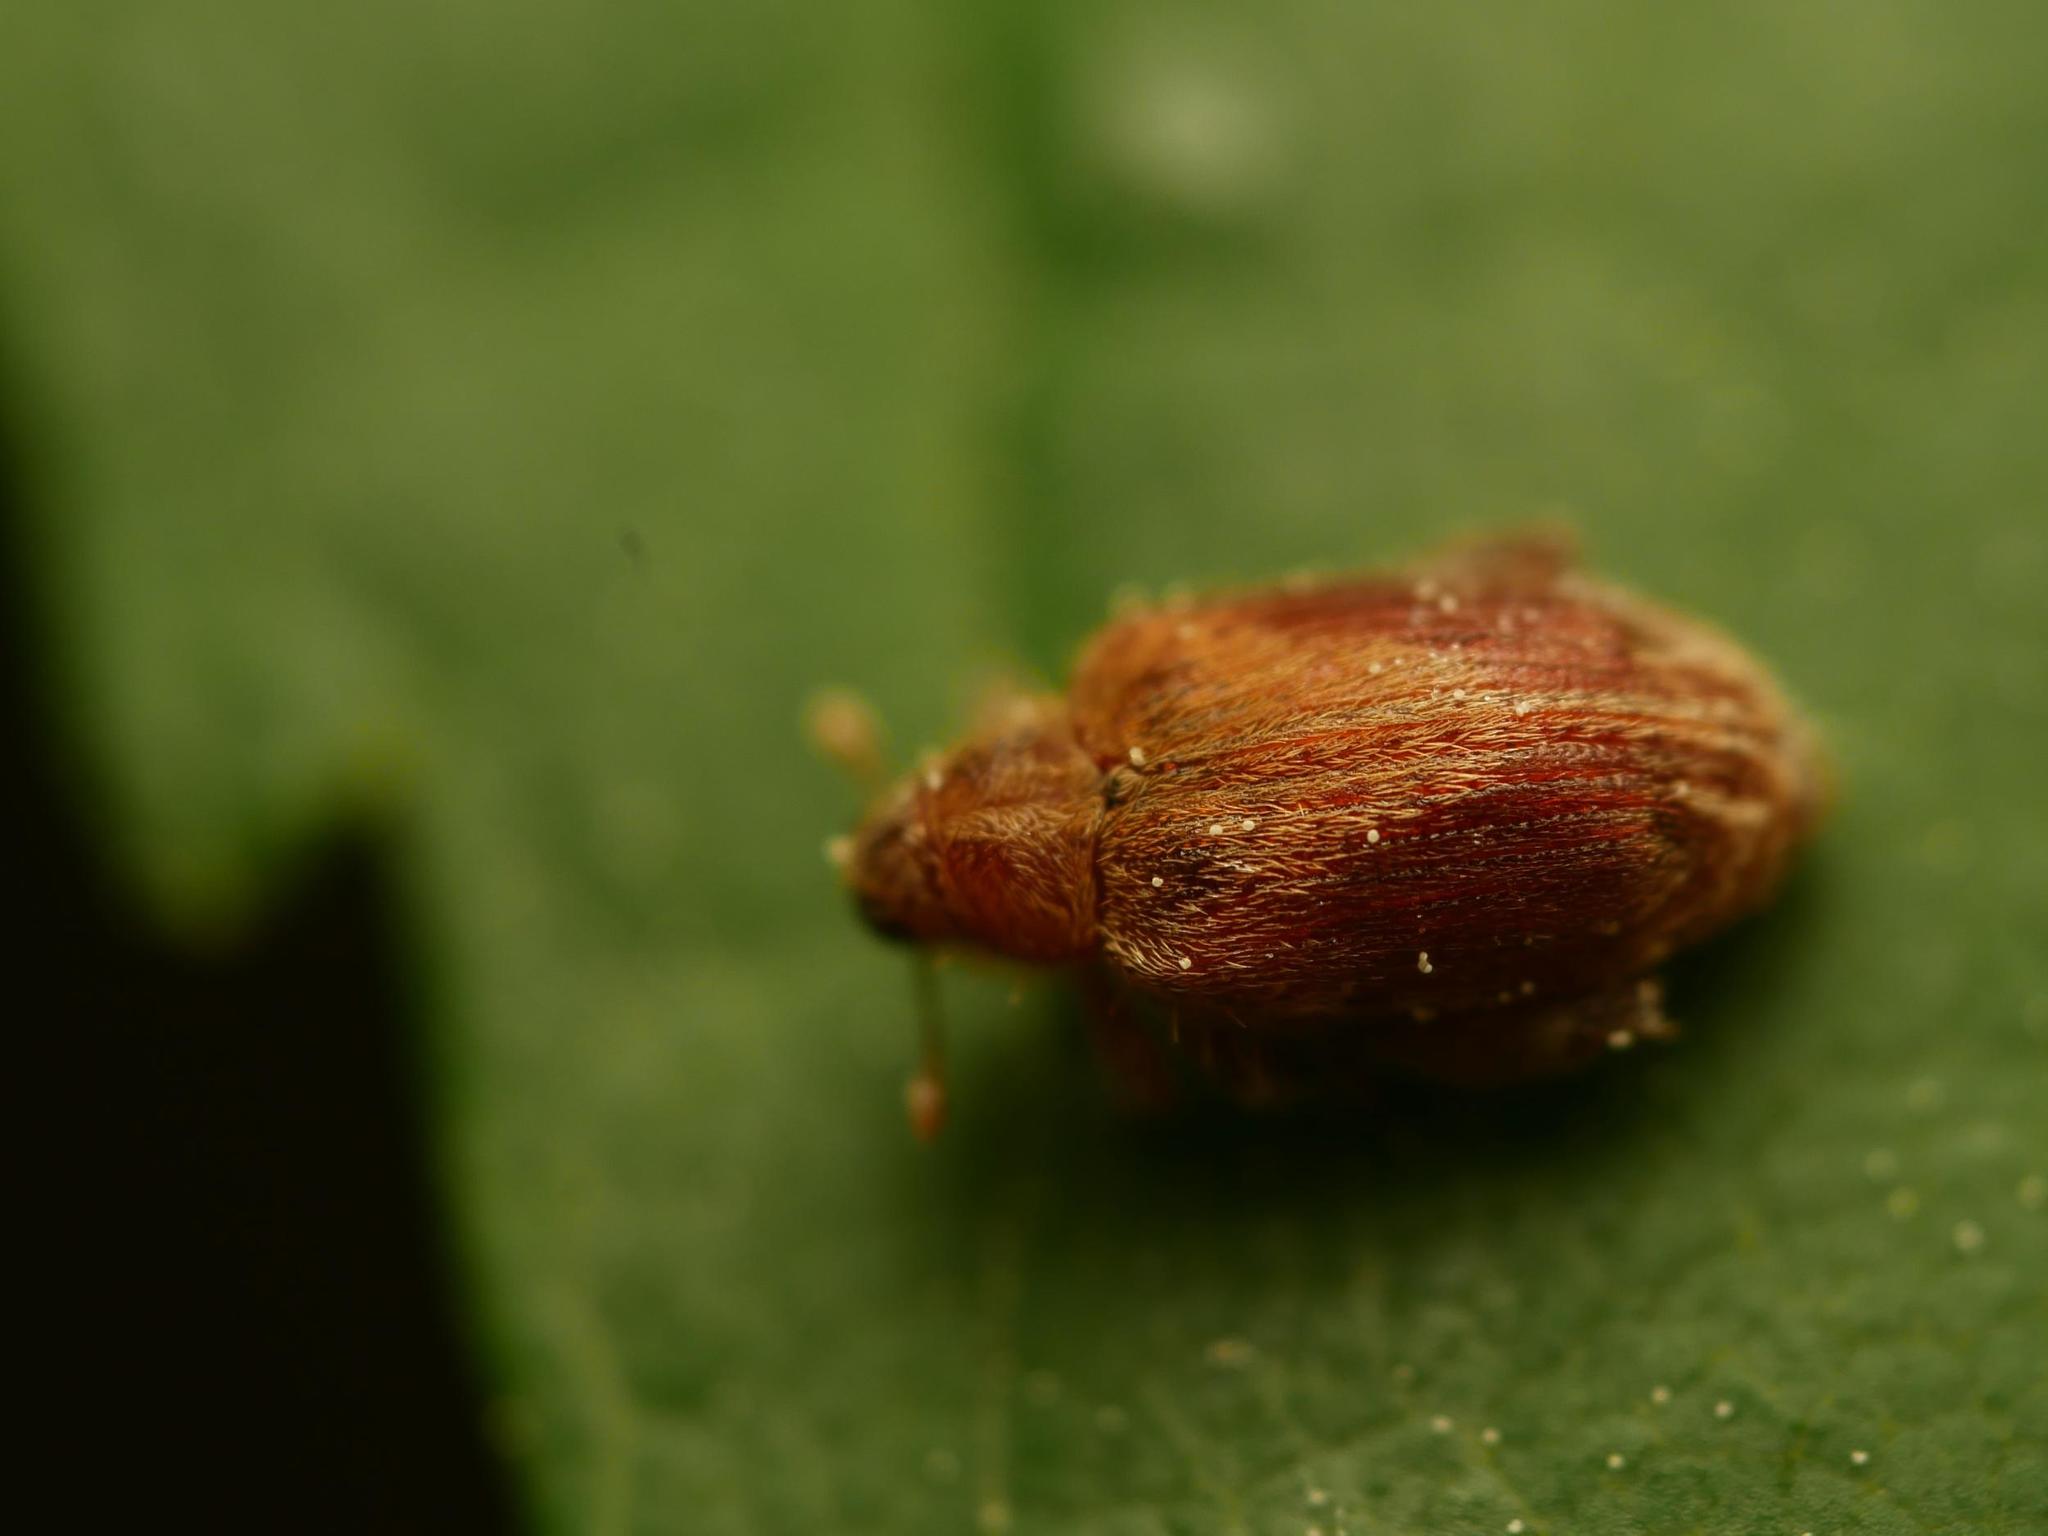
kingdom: Animalia
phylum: Arthropoda
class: Insecta
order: Coleoptera
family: Curculionidae
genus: Orchestes
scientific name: Orchestes quercus
